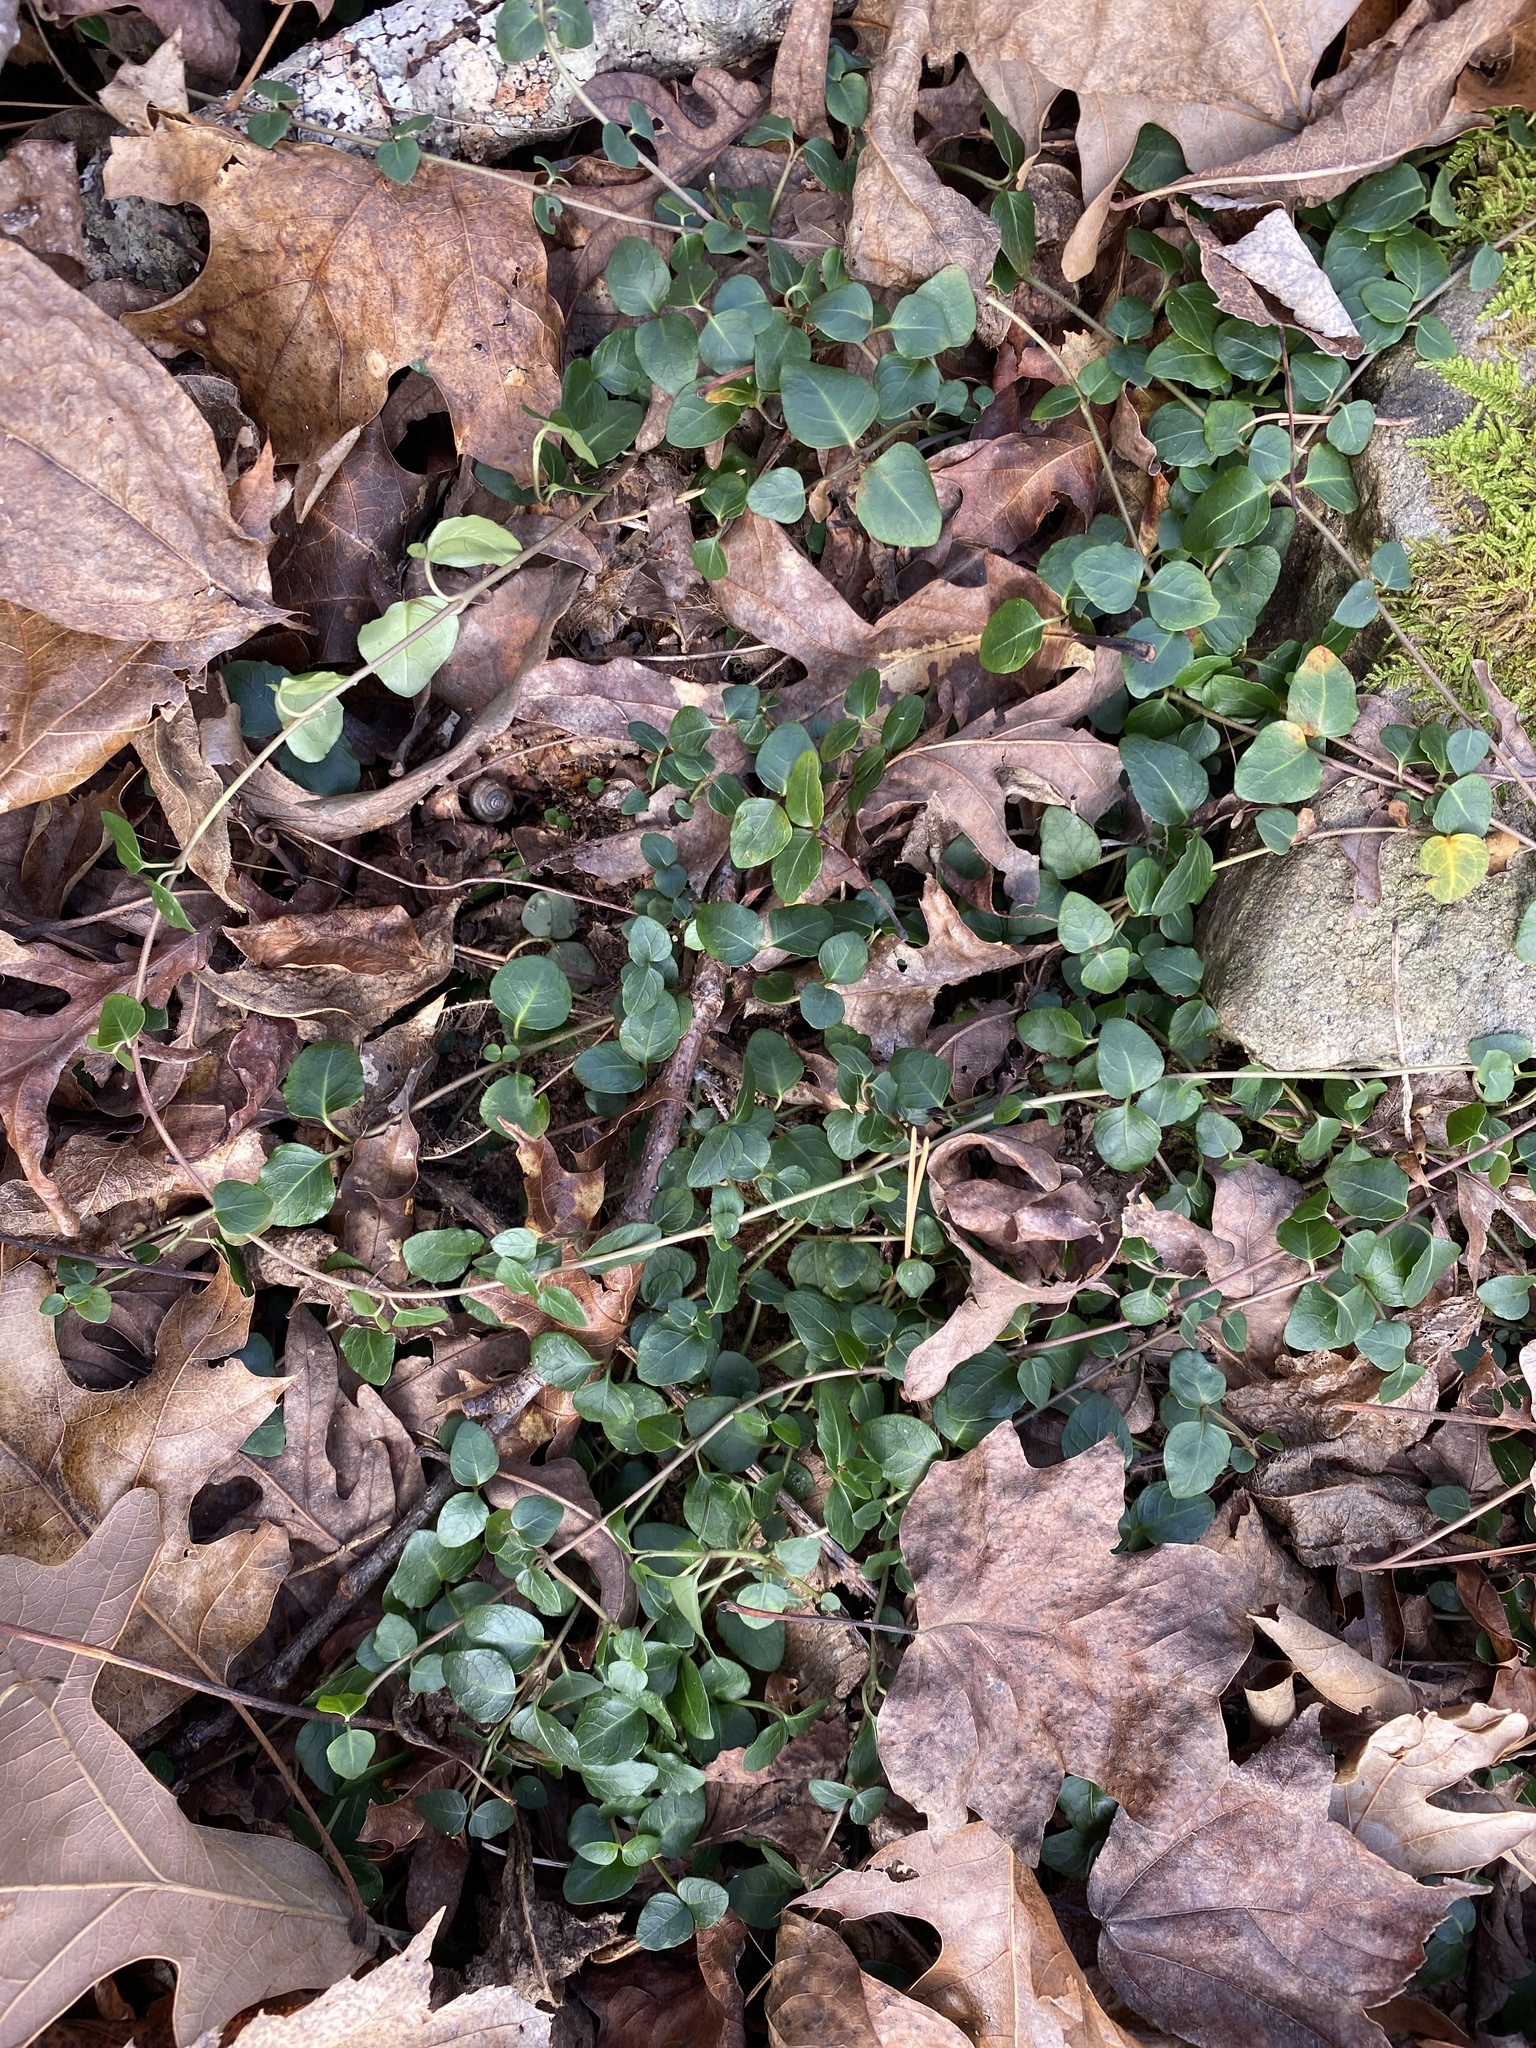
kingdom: Plantae
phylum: Tracheophyta
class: Magnoliopsida
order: Gentianales
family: Rubiaceae
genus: Mitchella
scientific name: Mitchella repens
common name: Partridge-berry
